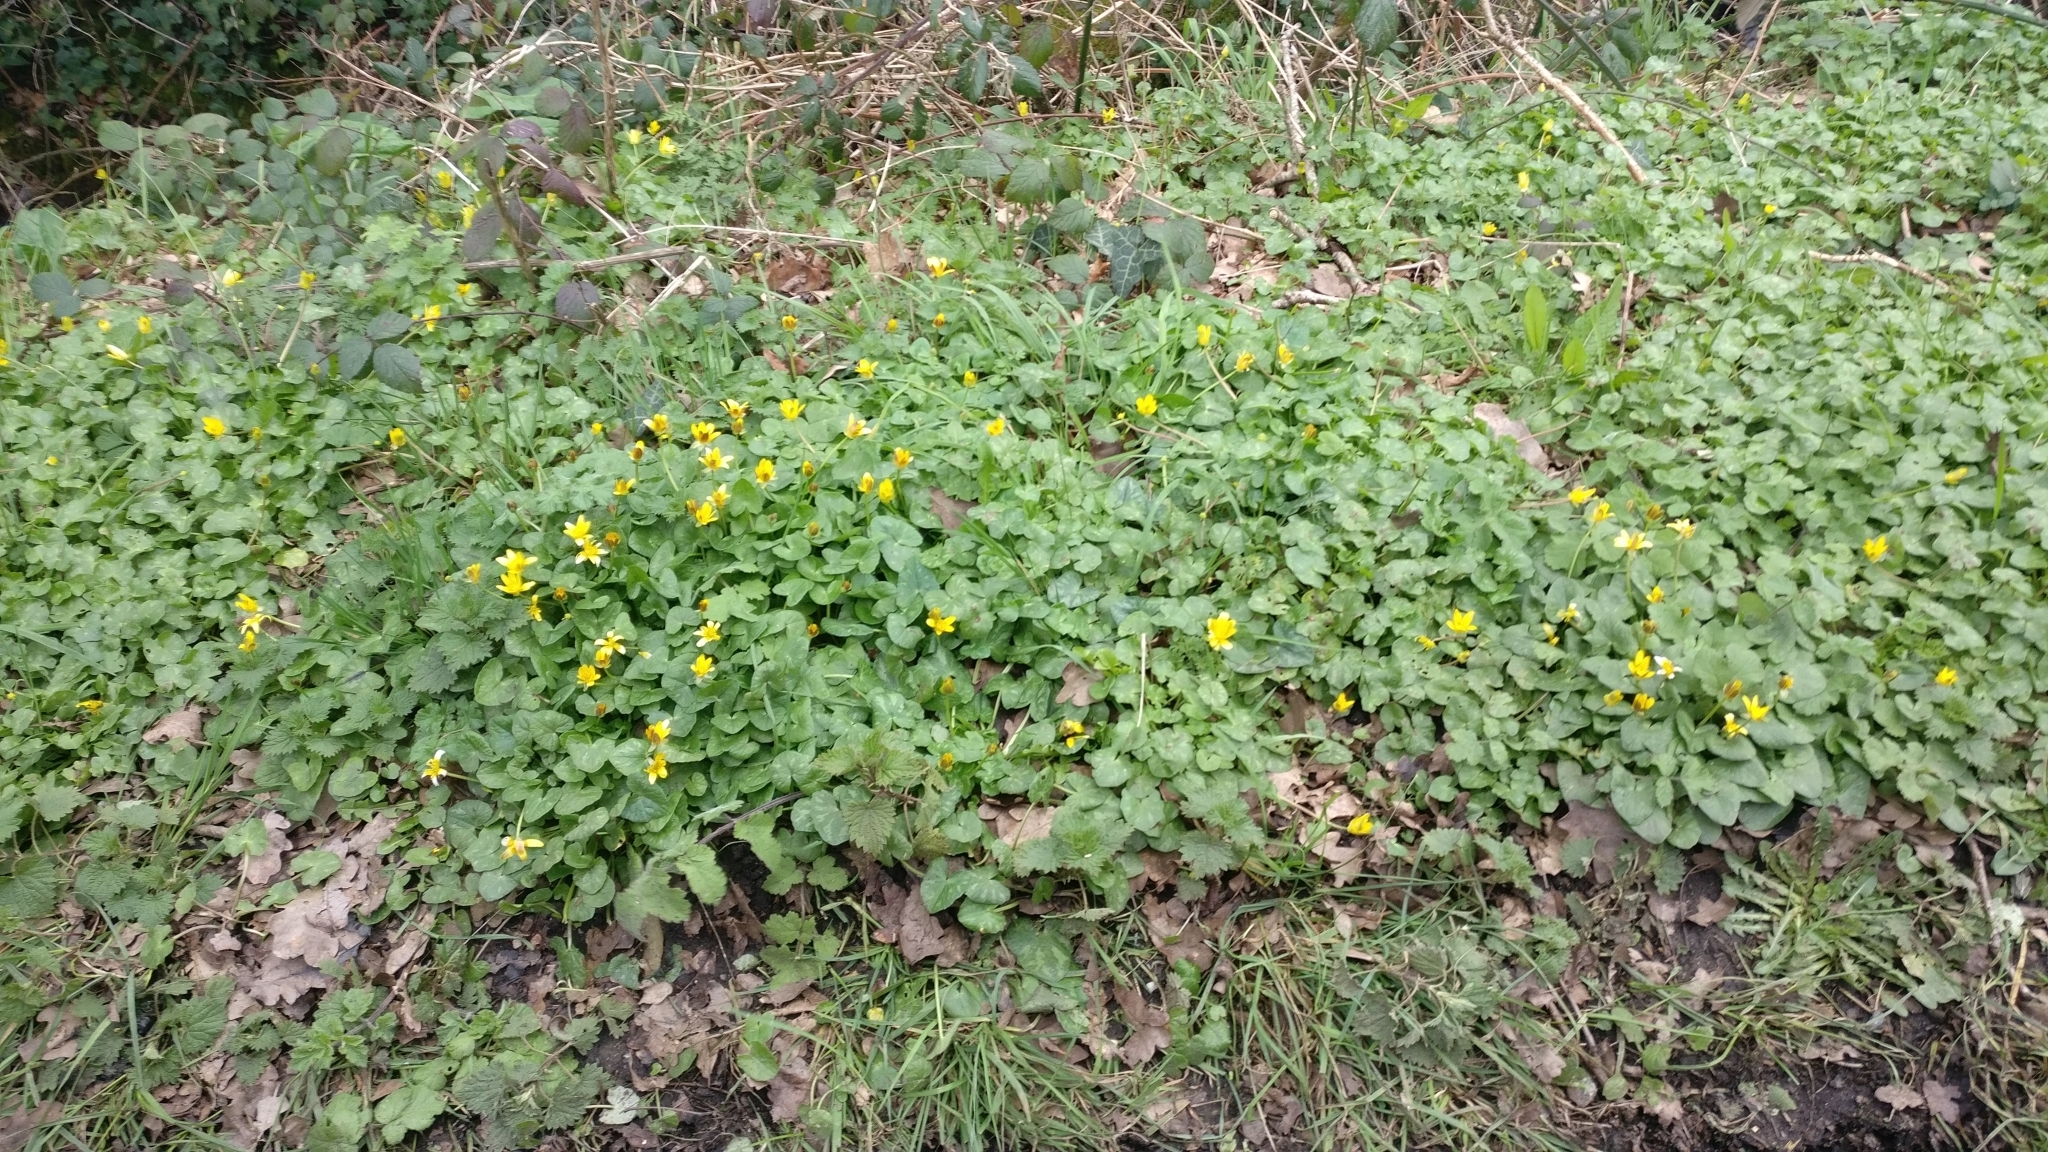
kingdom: Plantae
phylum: Tracheophyta
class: Magnoliopsida
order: Ranunculales
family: Ranunculaceae
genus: Ficaria
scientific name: Ficaria verna
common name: Lesser celandine
